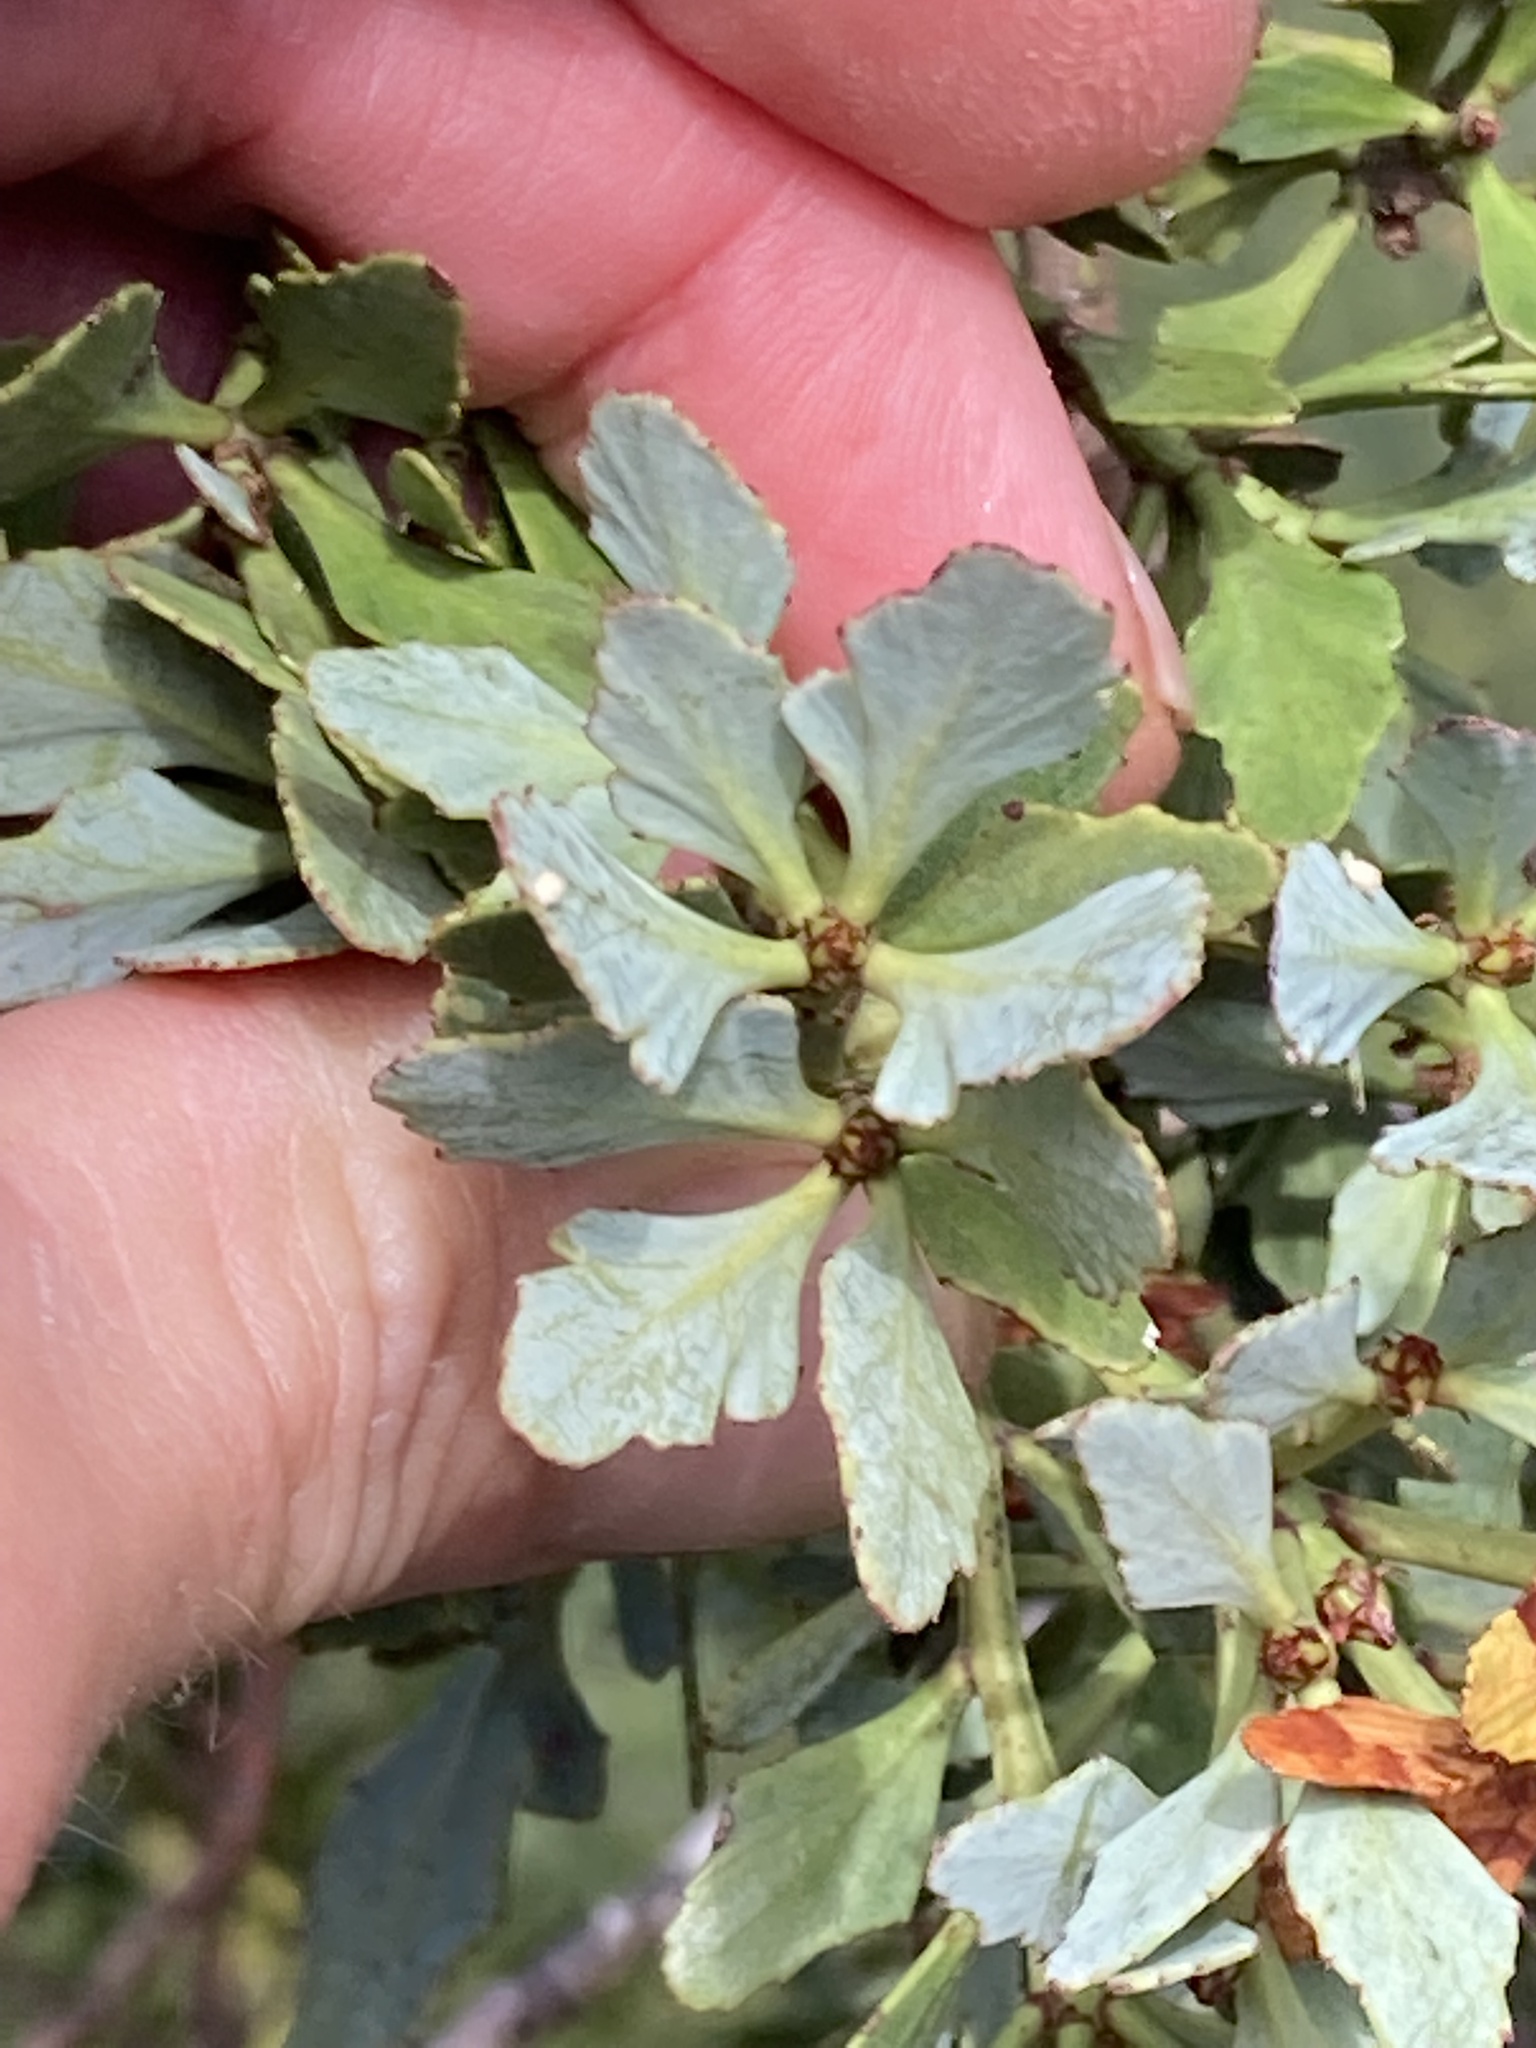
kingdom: Plantae
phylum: Tracheophyta
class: Pinopsida
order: Pinales
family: Phyllocladaceae
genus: Phyllocladus
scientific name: Phyllocladus trichomanoides
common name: Celery pine
